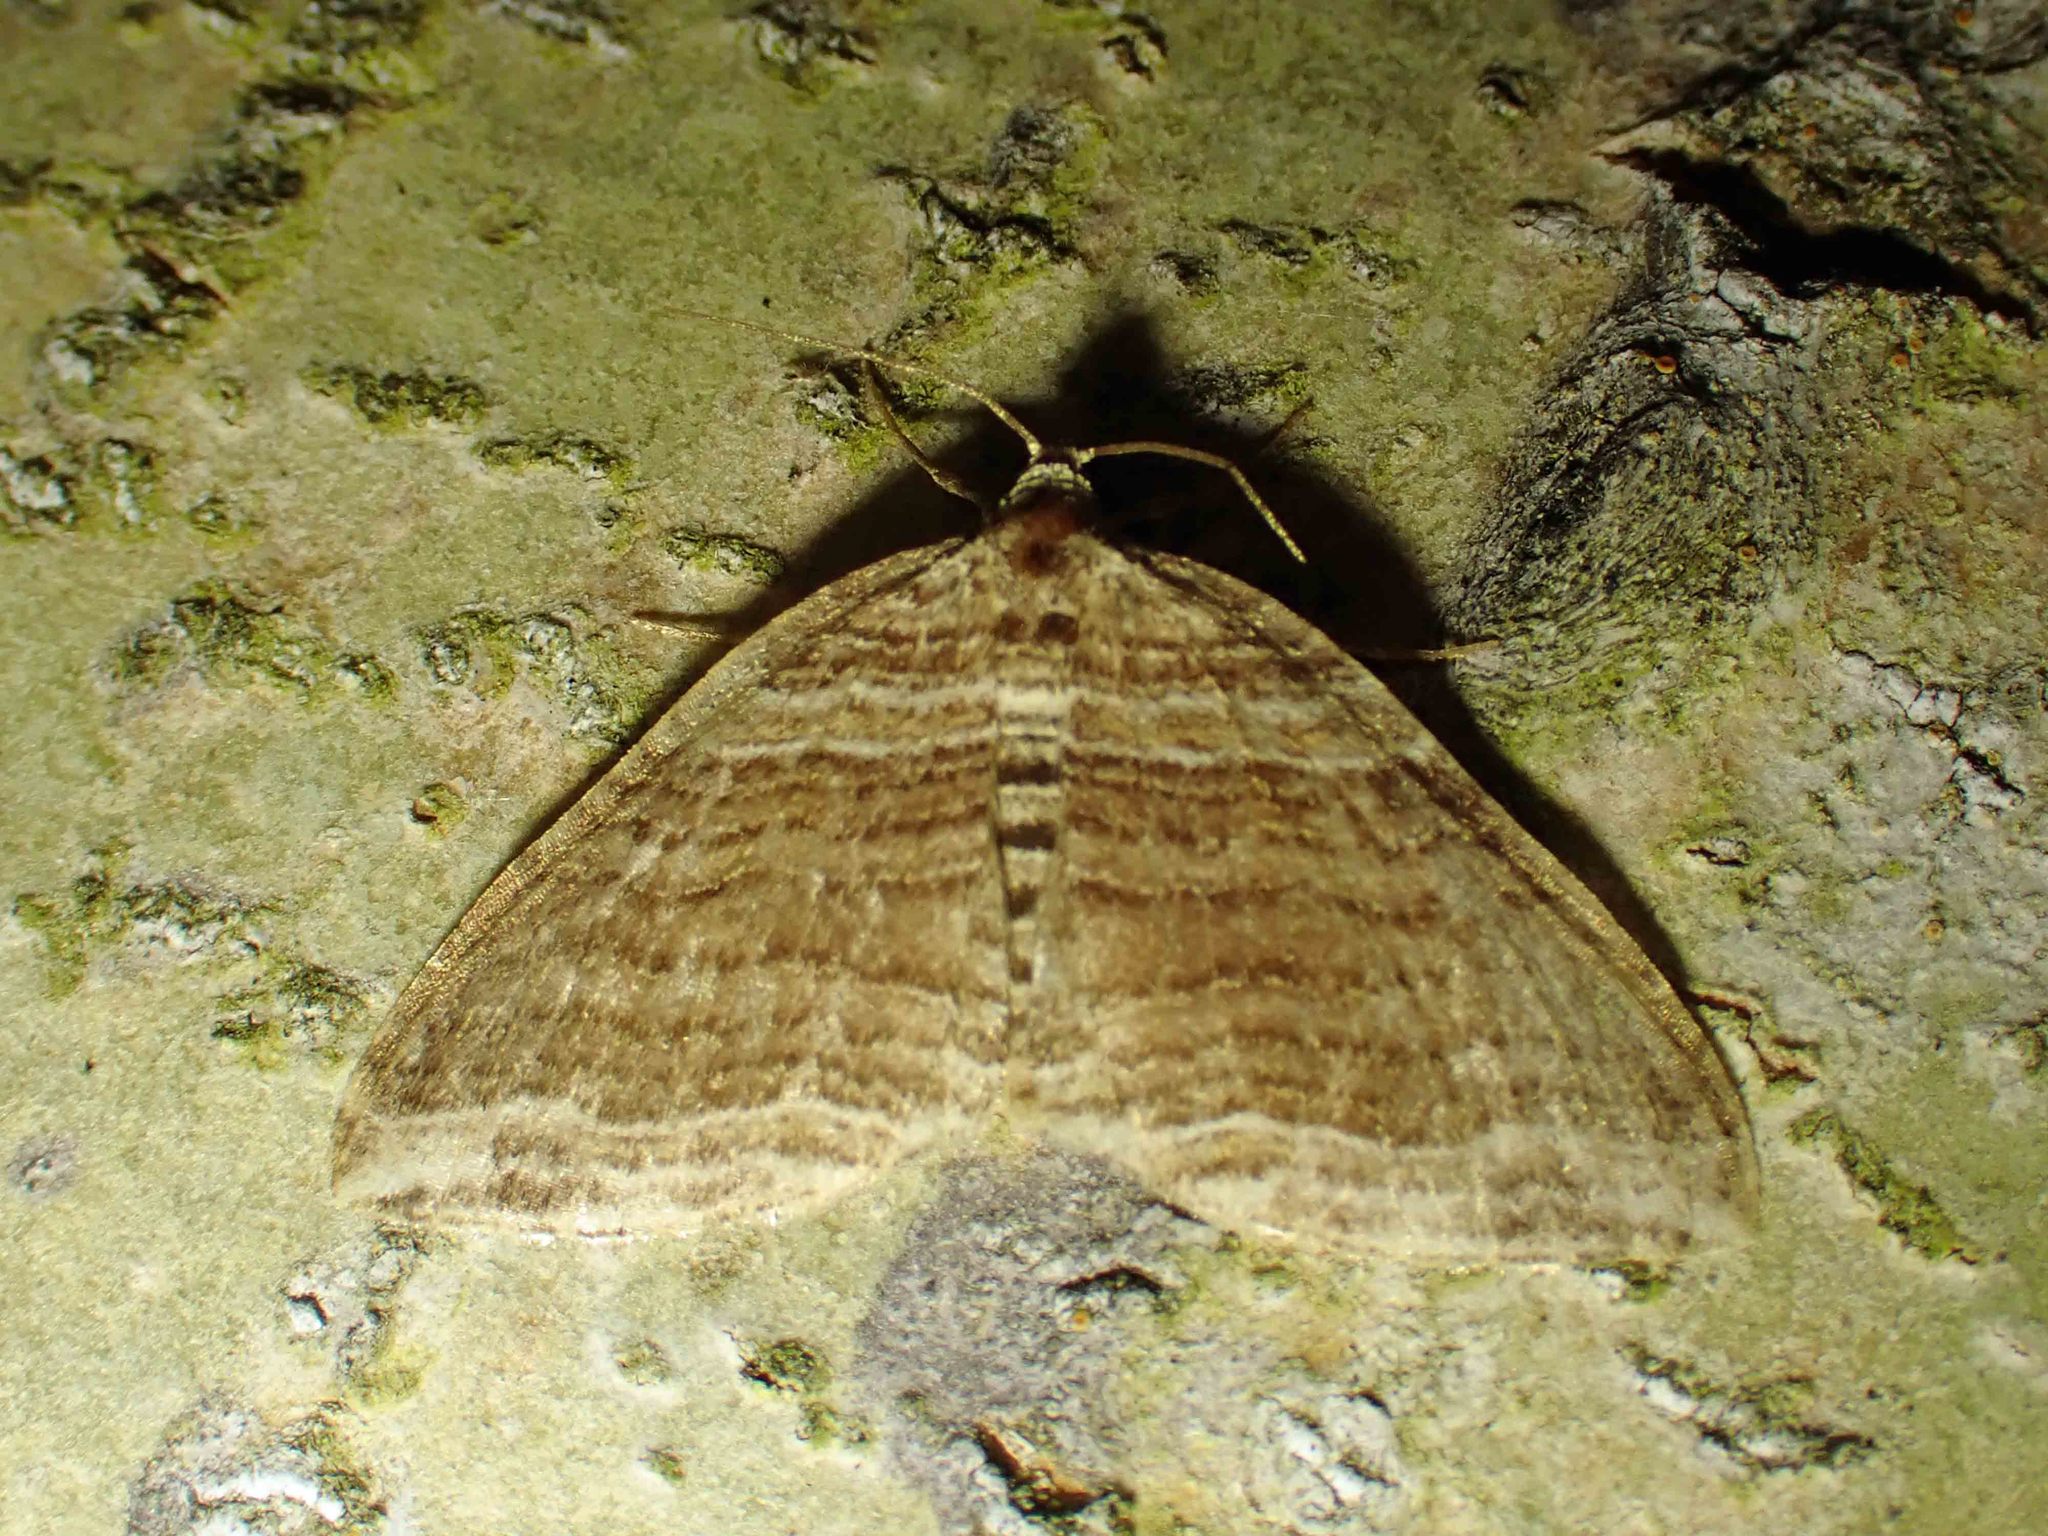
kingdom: Animalia
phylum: Arthropoda
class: Insecta
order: Lepidoptera
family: Geometridae
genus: Anticlea
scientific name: Anticlea multiferata
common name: Many-lined carpet
